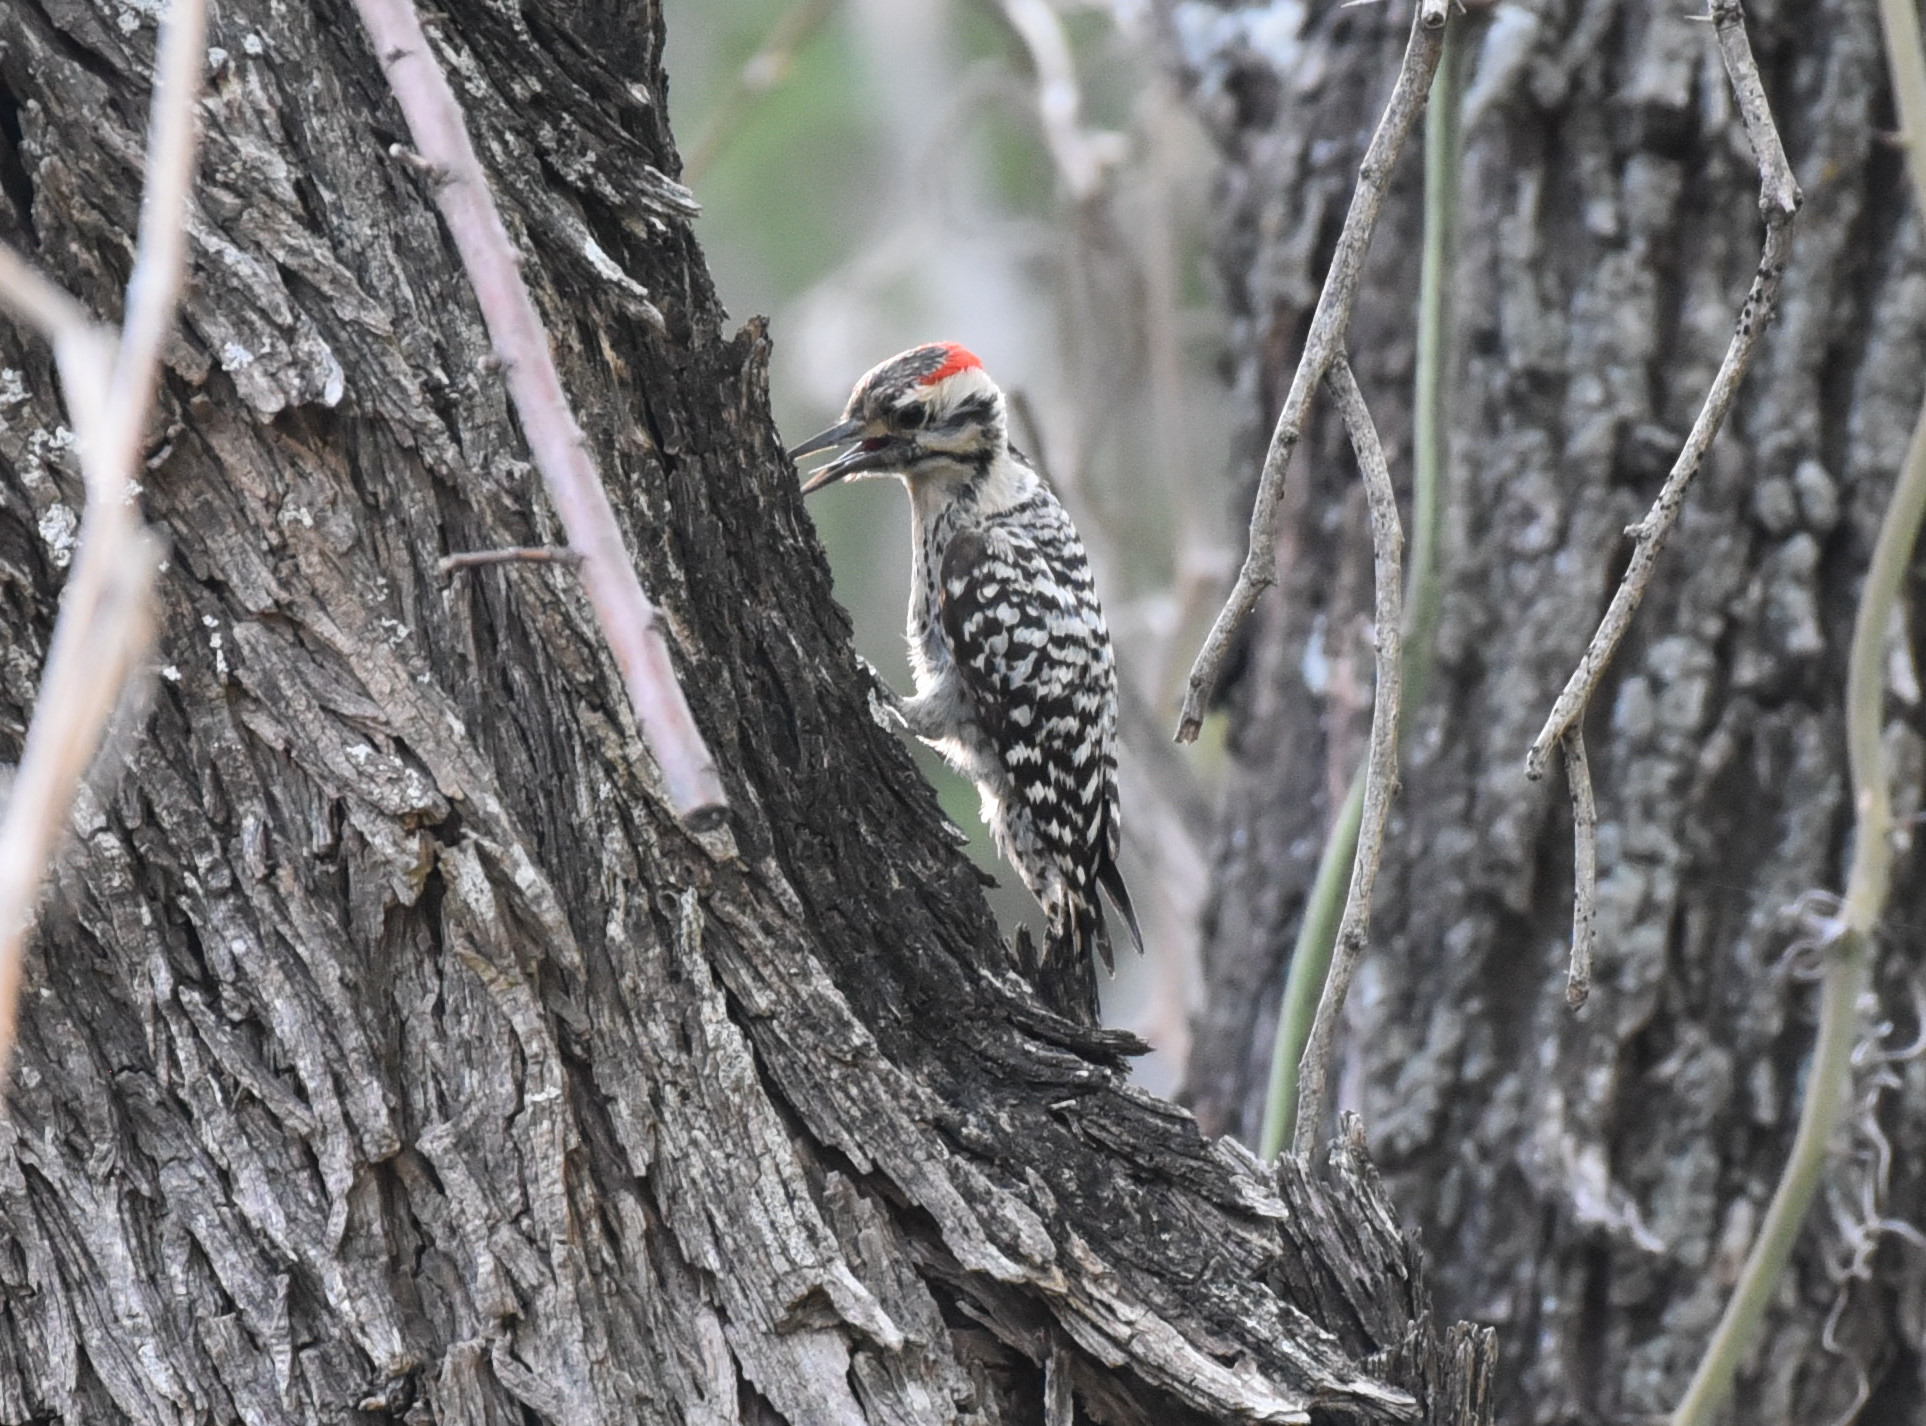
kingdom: Animalia
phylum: Chordata
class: Aves
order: Piciformes
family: Picidae
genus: Dryobates
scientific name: Dryobates scalaris
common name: Ladder-backed woodpecker
